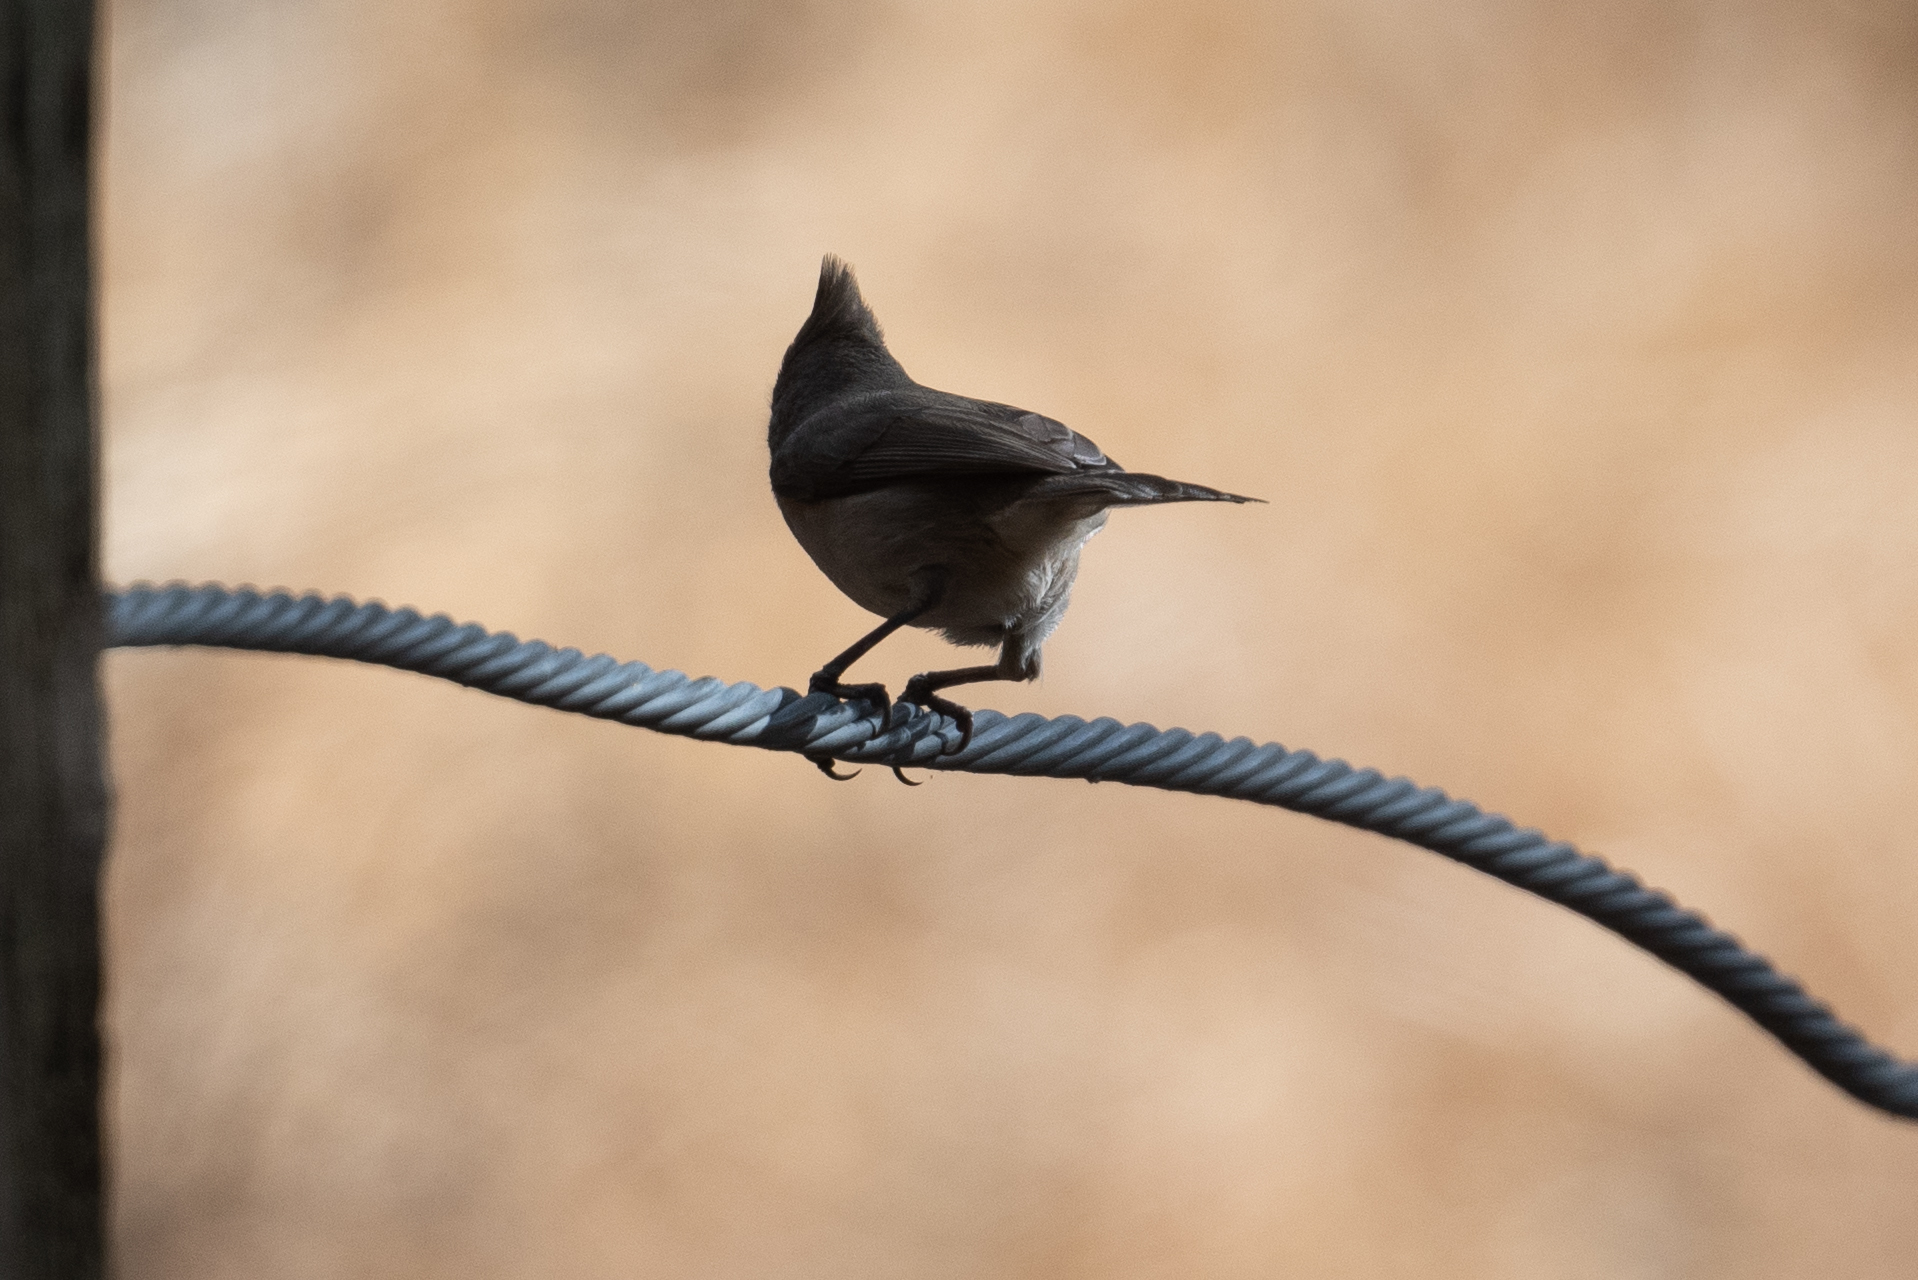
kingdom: Animalia
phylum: Chordata
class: Aves
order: Passeriformes
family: Paridae
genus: Baeolophus
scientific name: Baeolophus inornatus
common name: Oak titmouse
